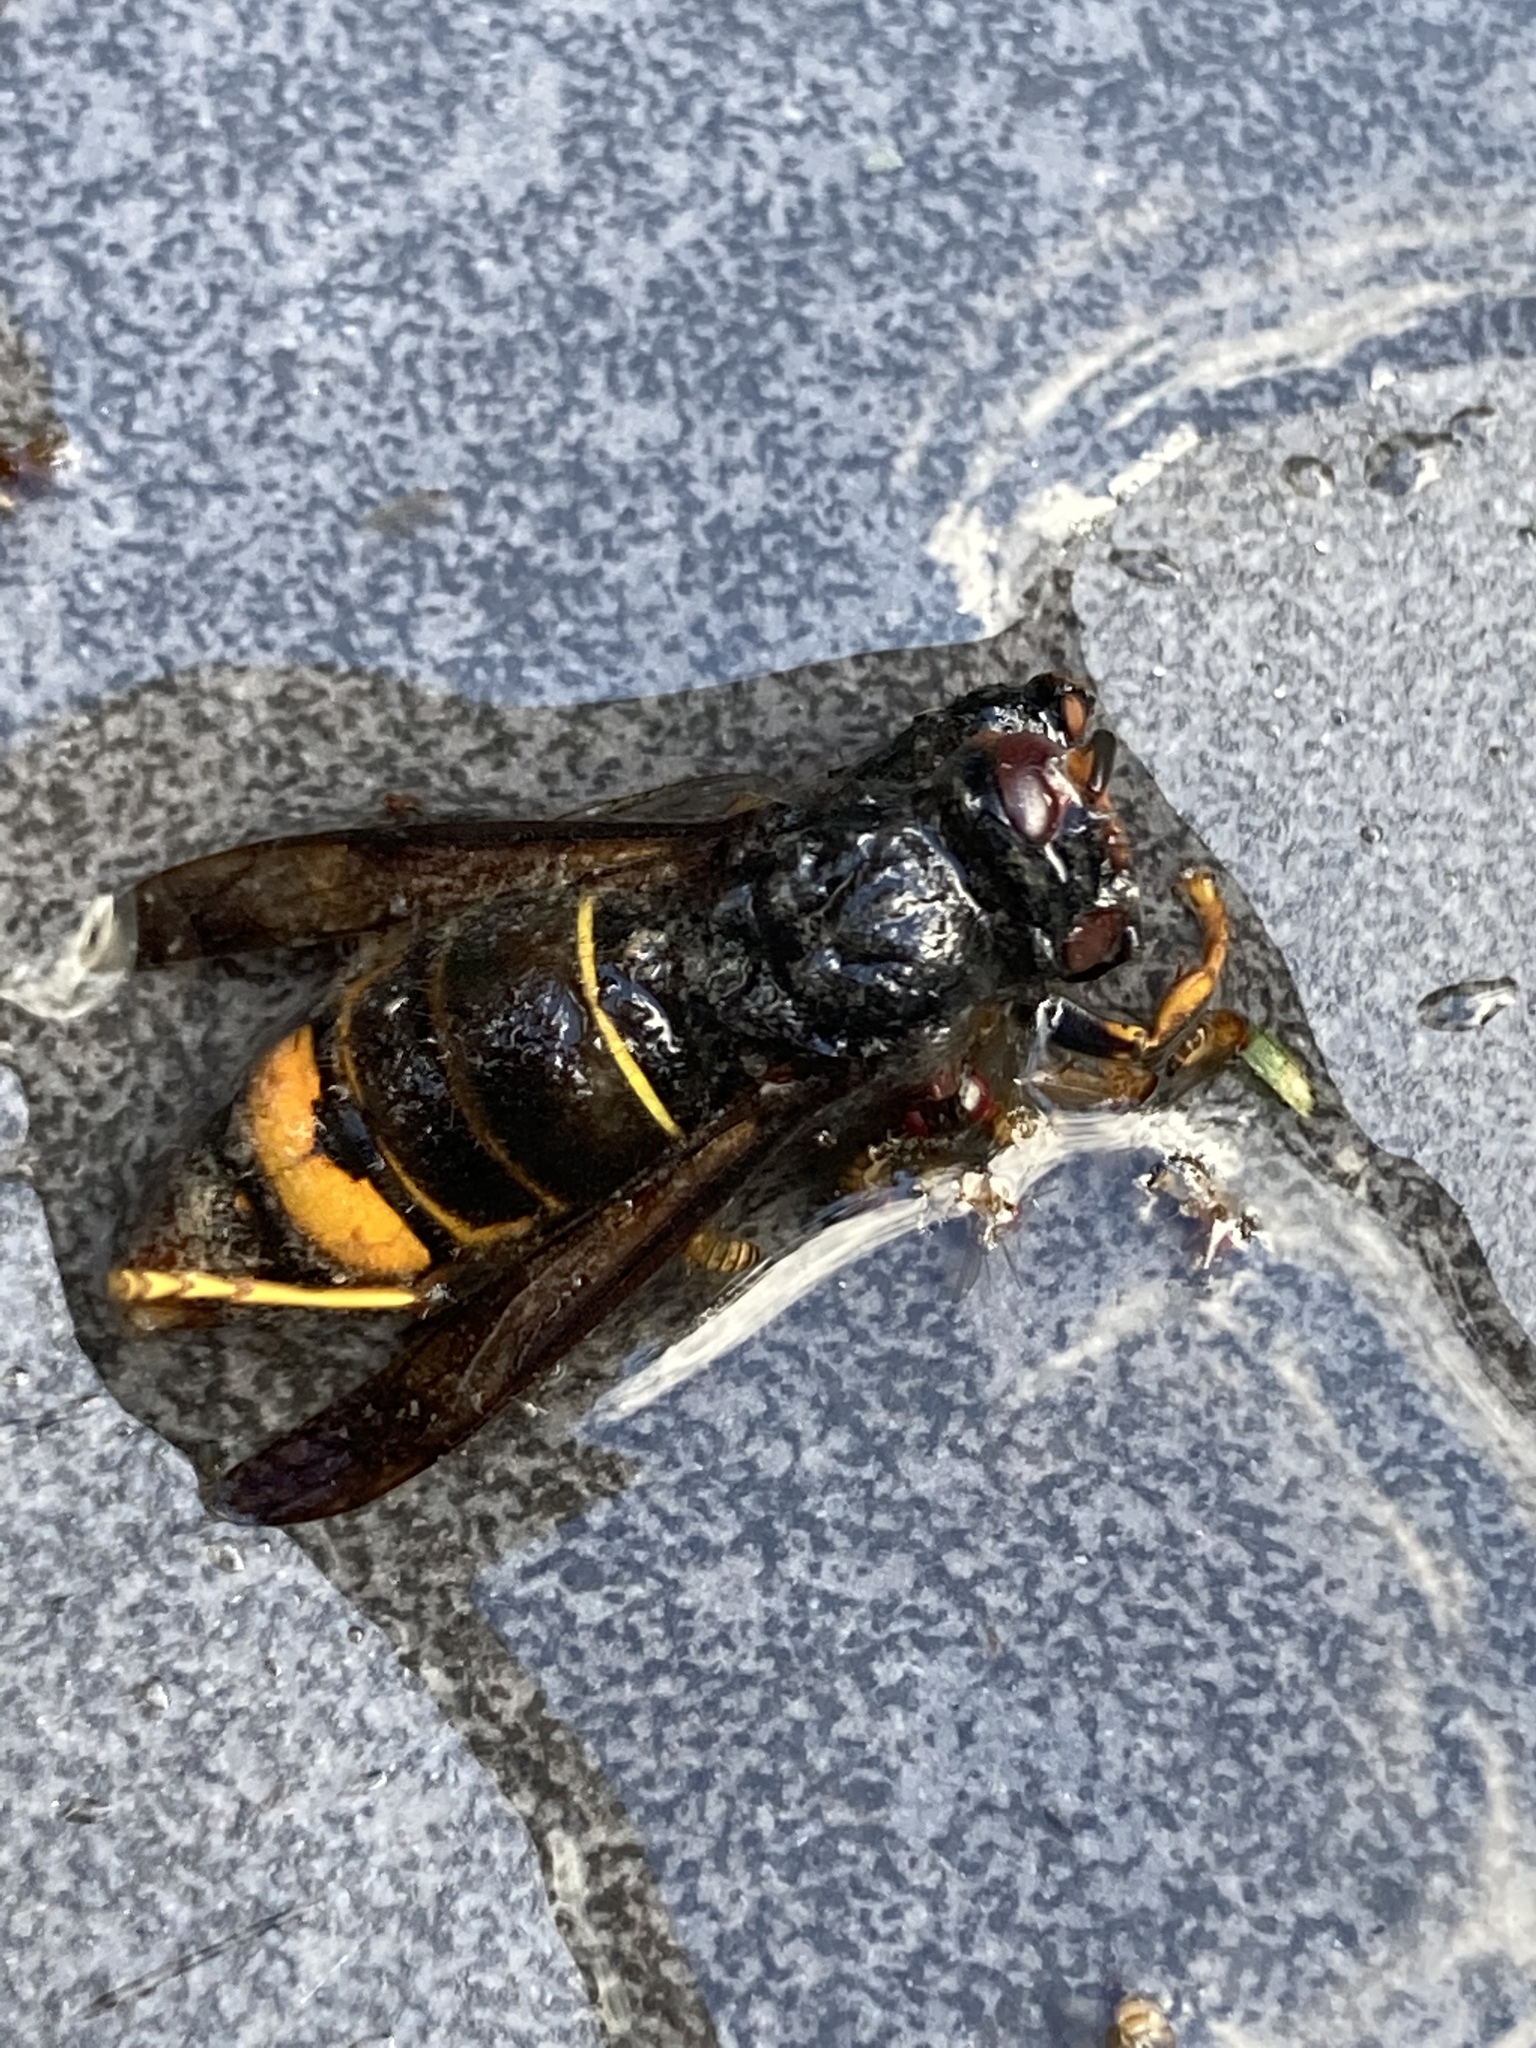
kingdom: Animalia
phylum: Arthropoda
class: Insecta
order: Hymenoptera
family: Vespidae
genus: Vespa
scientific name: Vespa velutina
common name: Asian hornet
